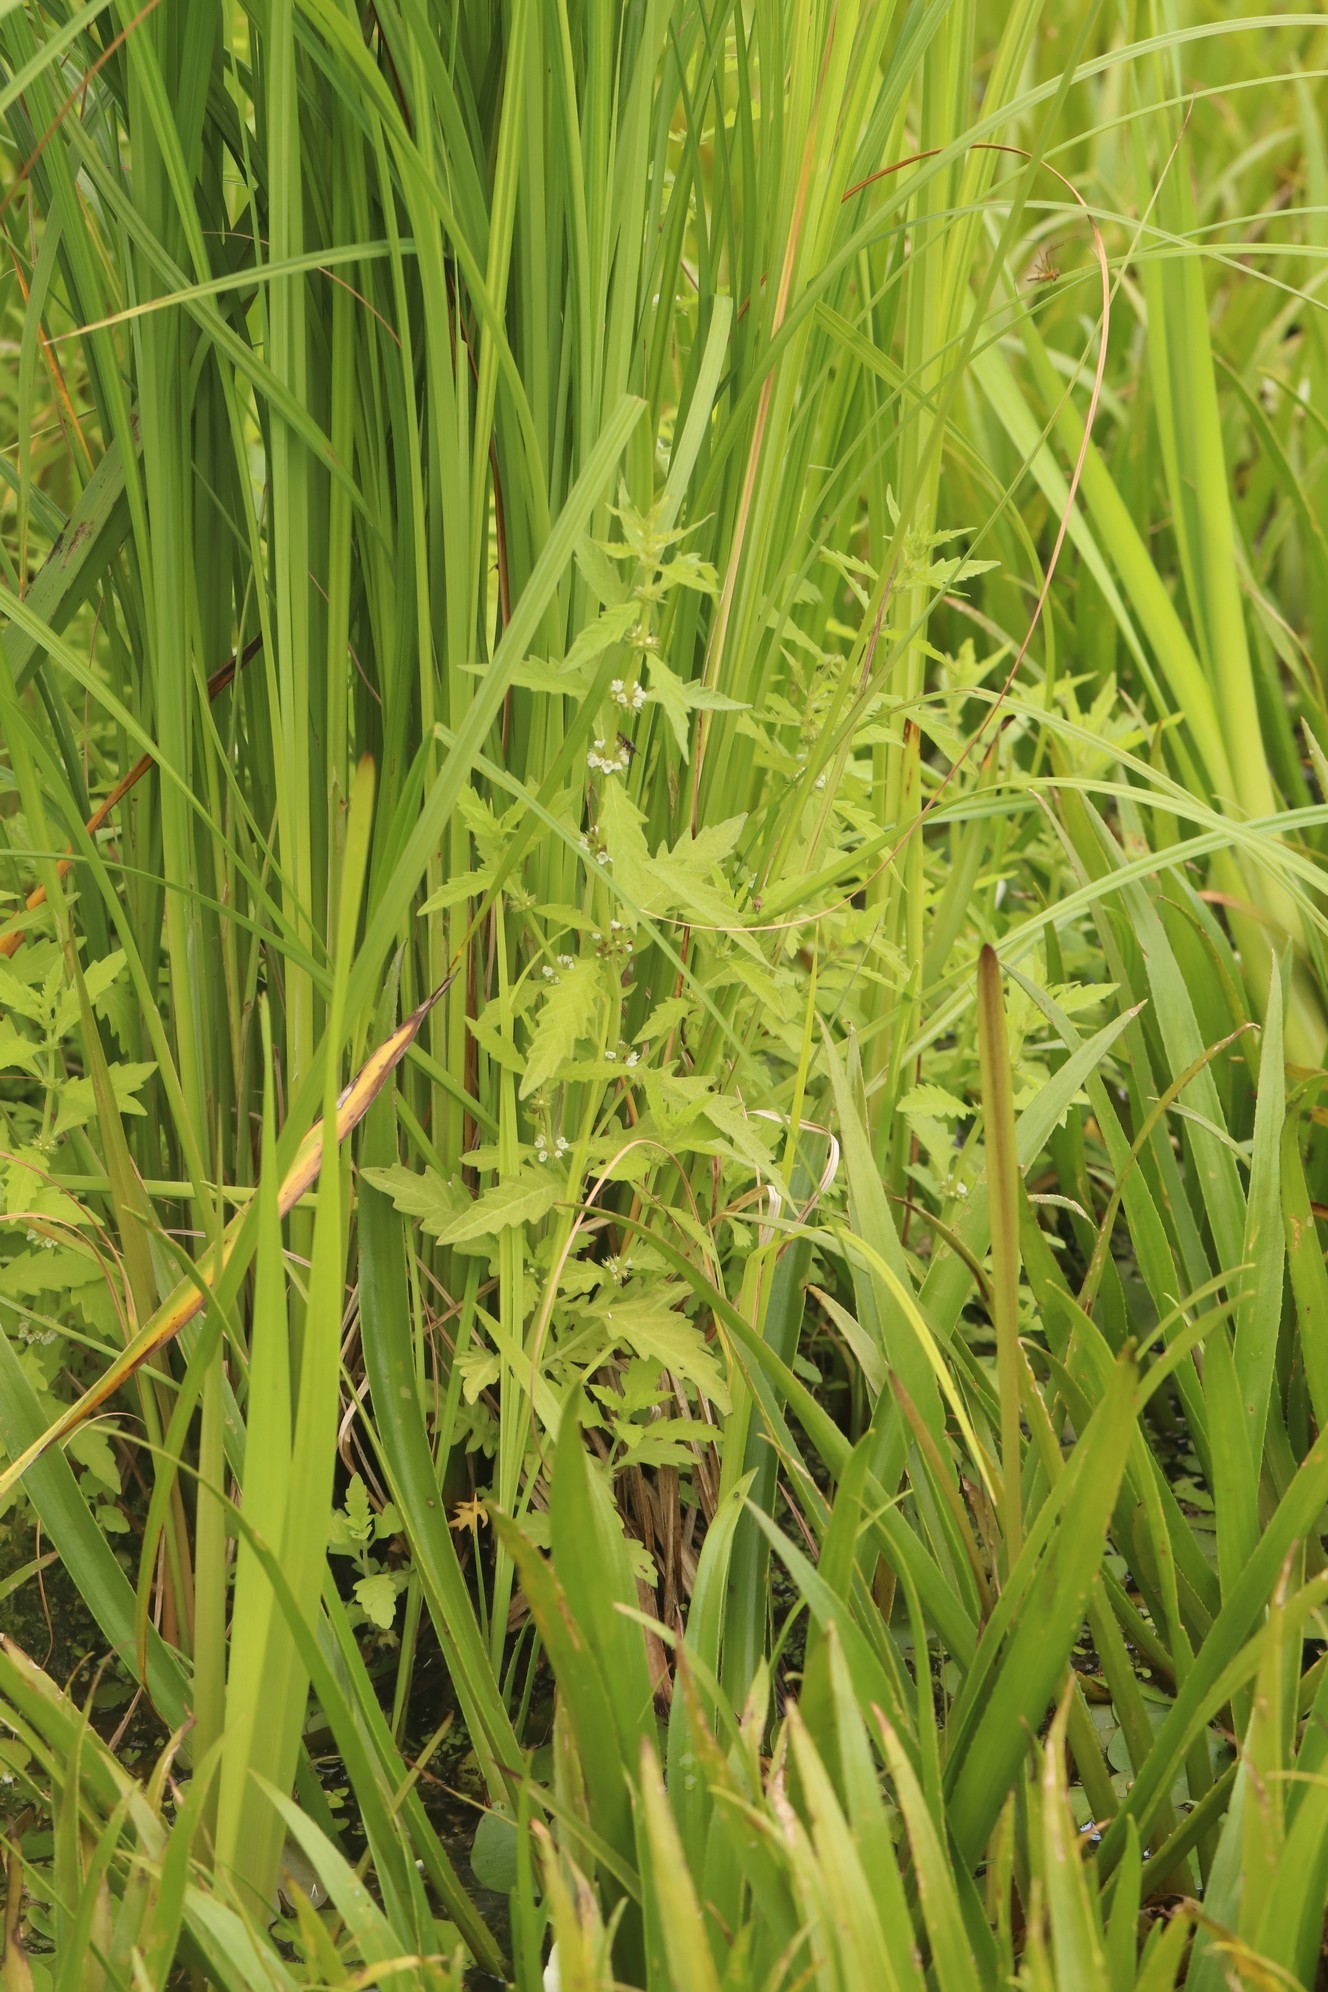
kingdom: Plantae
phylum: Tracheophyta
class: Magnoliopsida
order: Lamiales
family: Lamiaceae
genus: Lycopus
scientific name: Lycopus europaeus
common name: European bugleweed
